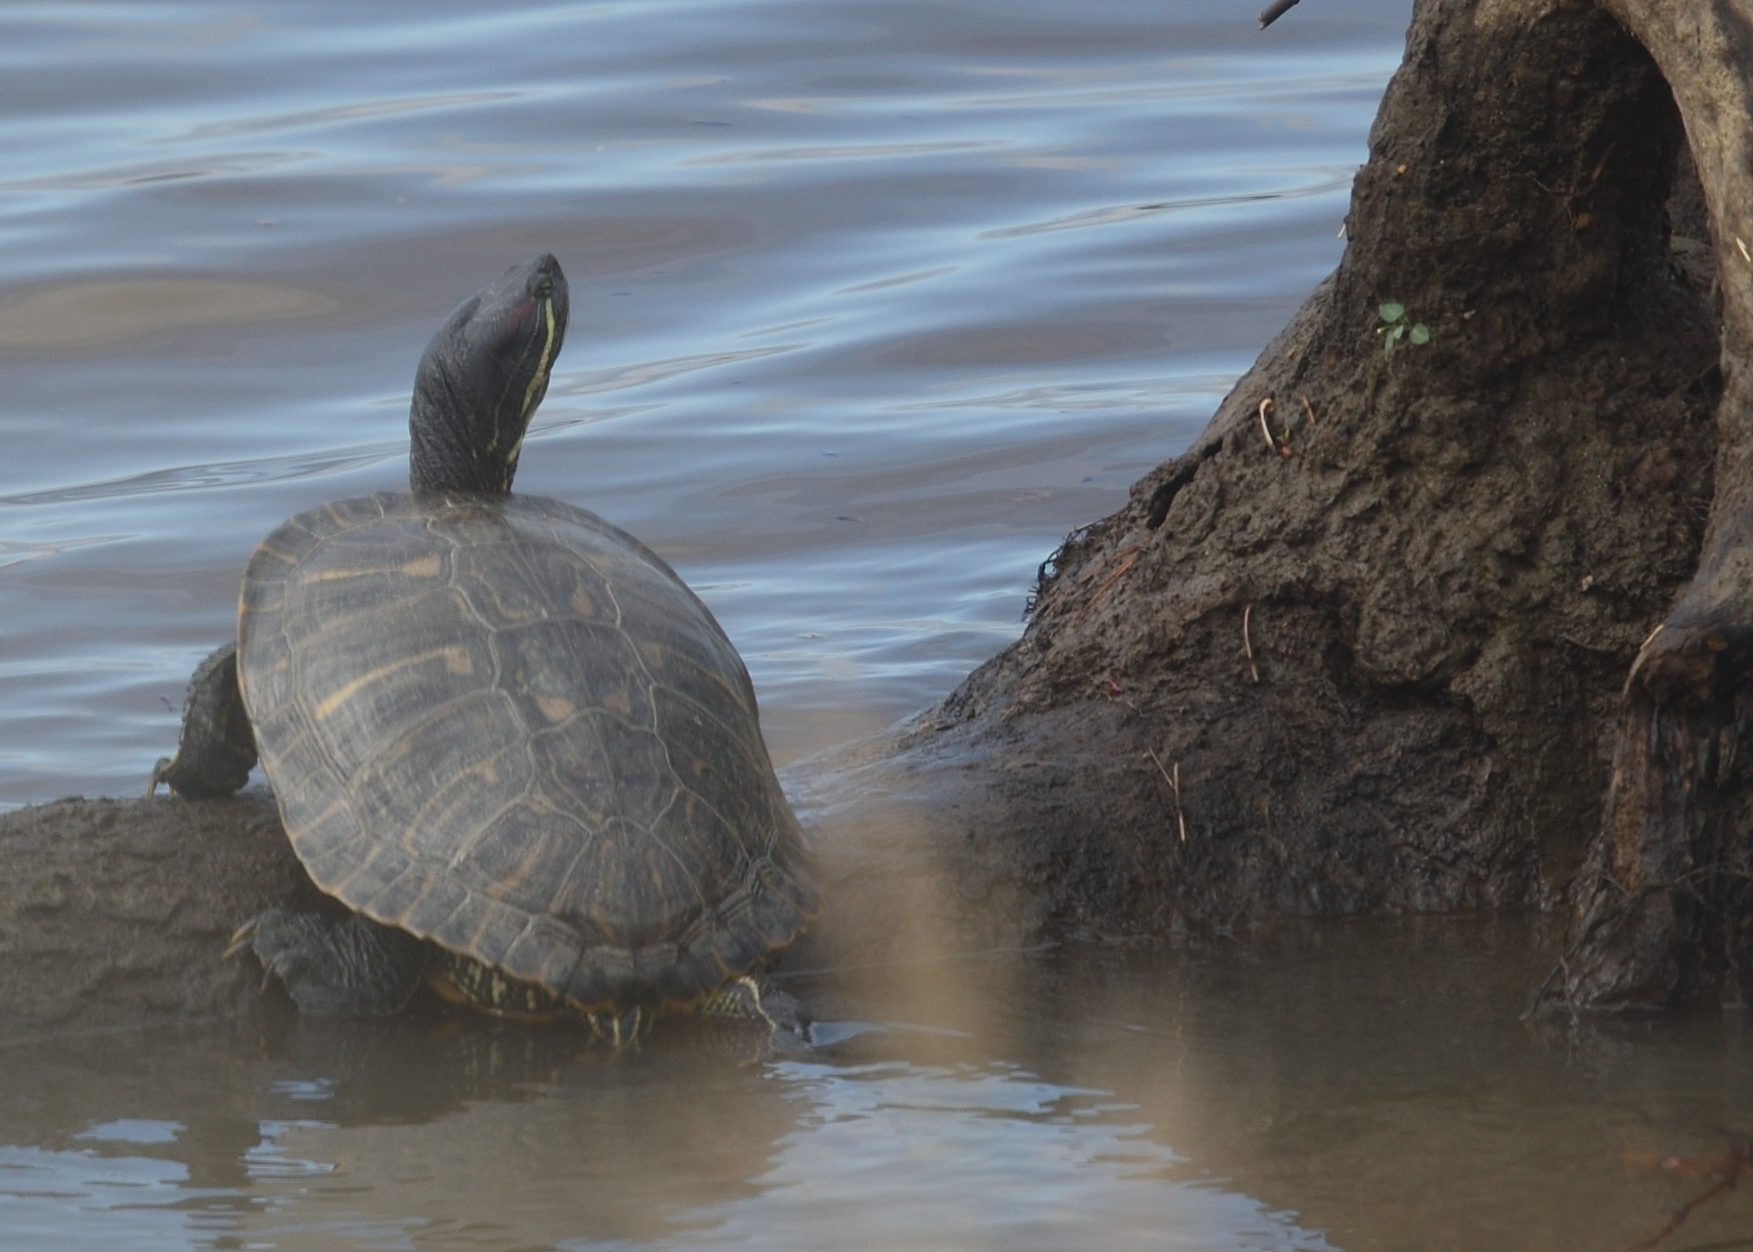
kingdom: Animalia
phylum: Chordata
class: Testudines
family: Emydidae
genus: Trachemys
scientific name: Trachemys scripta
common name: Slider
